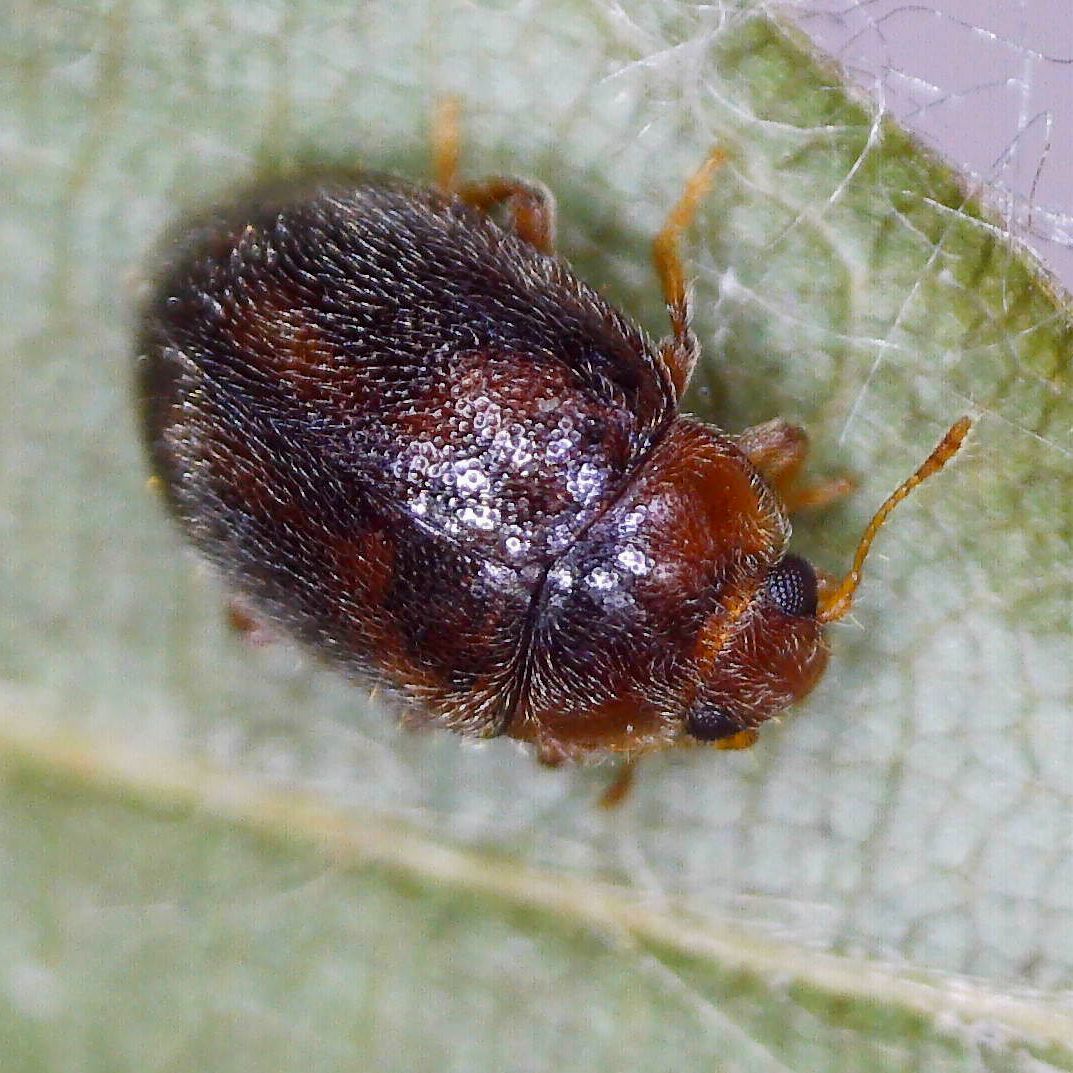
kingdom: Animalia
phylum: Arthropoda
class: Insecta
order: Coleoptera
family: Coccinellidae
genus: Rhyzobius
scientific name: Rhyzobius chrysomeloides
